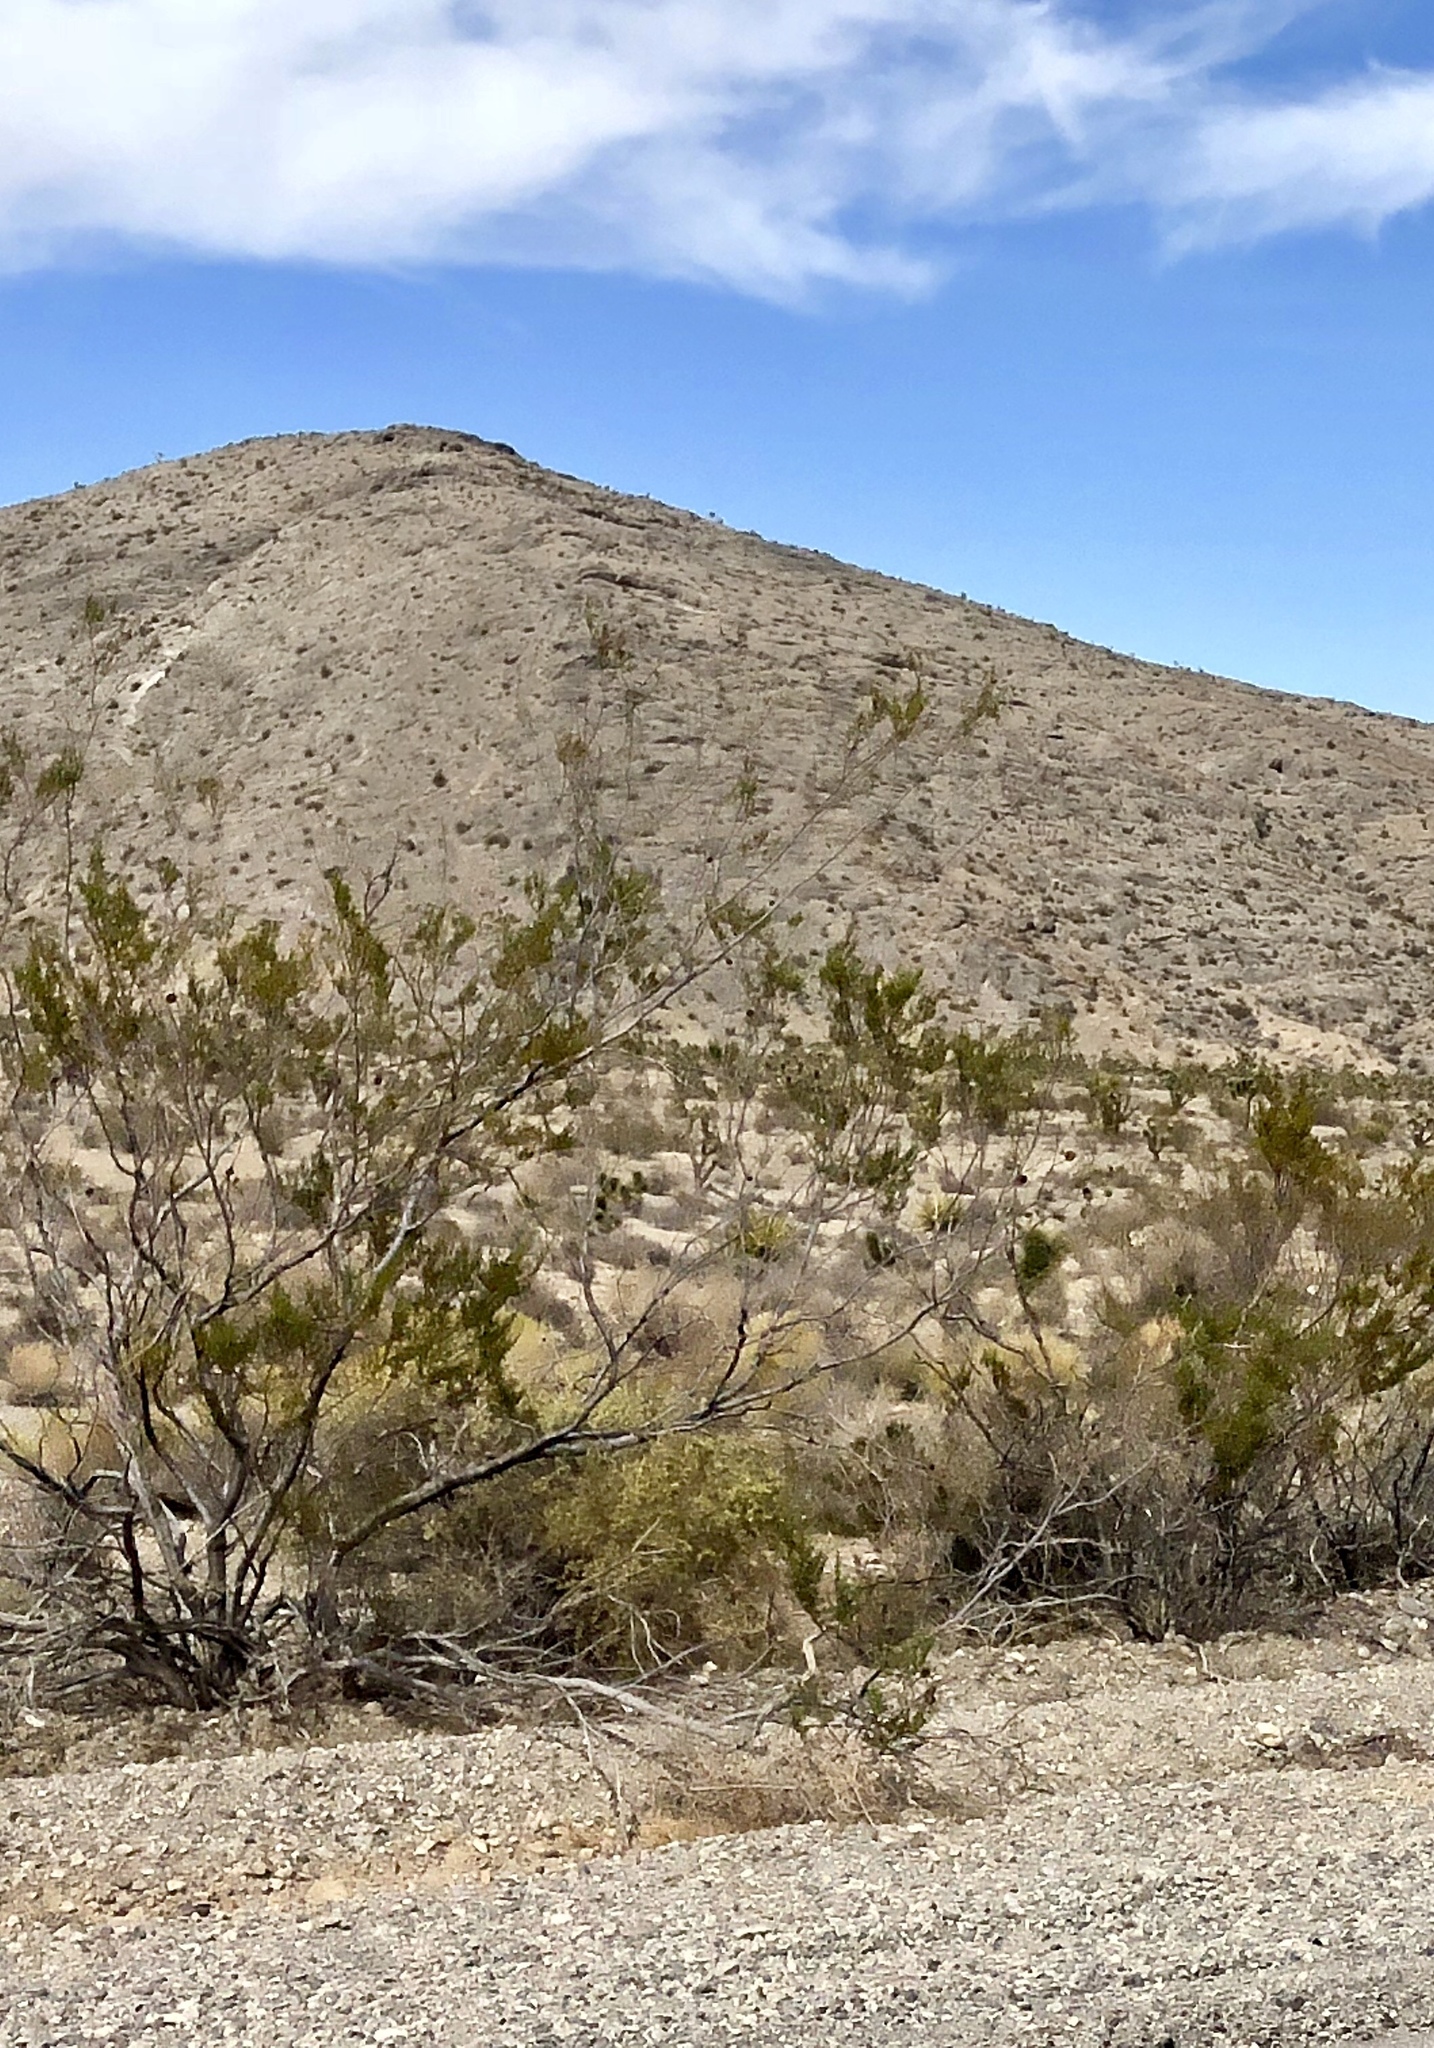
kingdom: Plantae
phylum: Tracheophyta
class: Magnoliopsida
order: Zygophyllales
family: Zygophyllaceae
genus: Larrea
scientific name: Larrea tridentata
